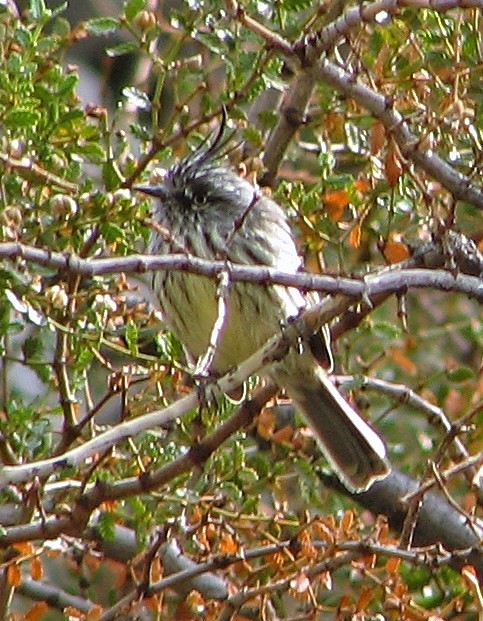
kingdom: Animalia
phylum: Chordata
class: Aves
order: Passeriformes
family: Tyrannidae
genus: Anairetes
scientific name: Anairetes parulus
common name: Tufted tit-tyrant
